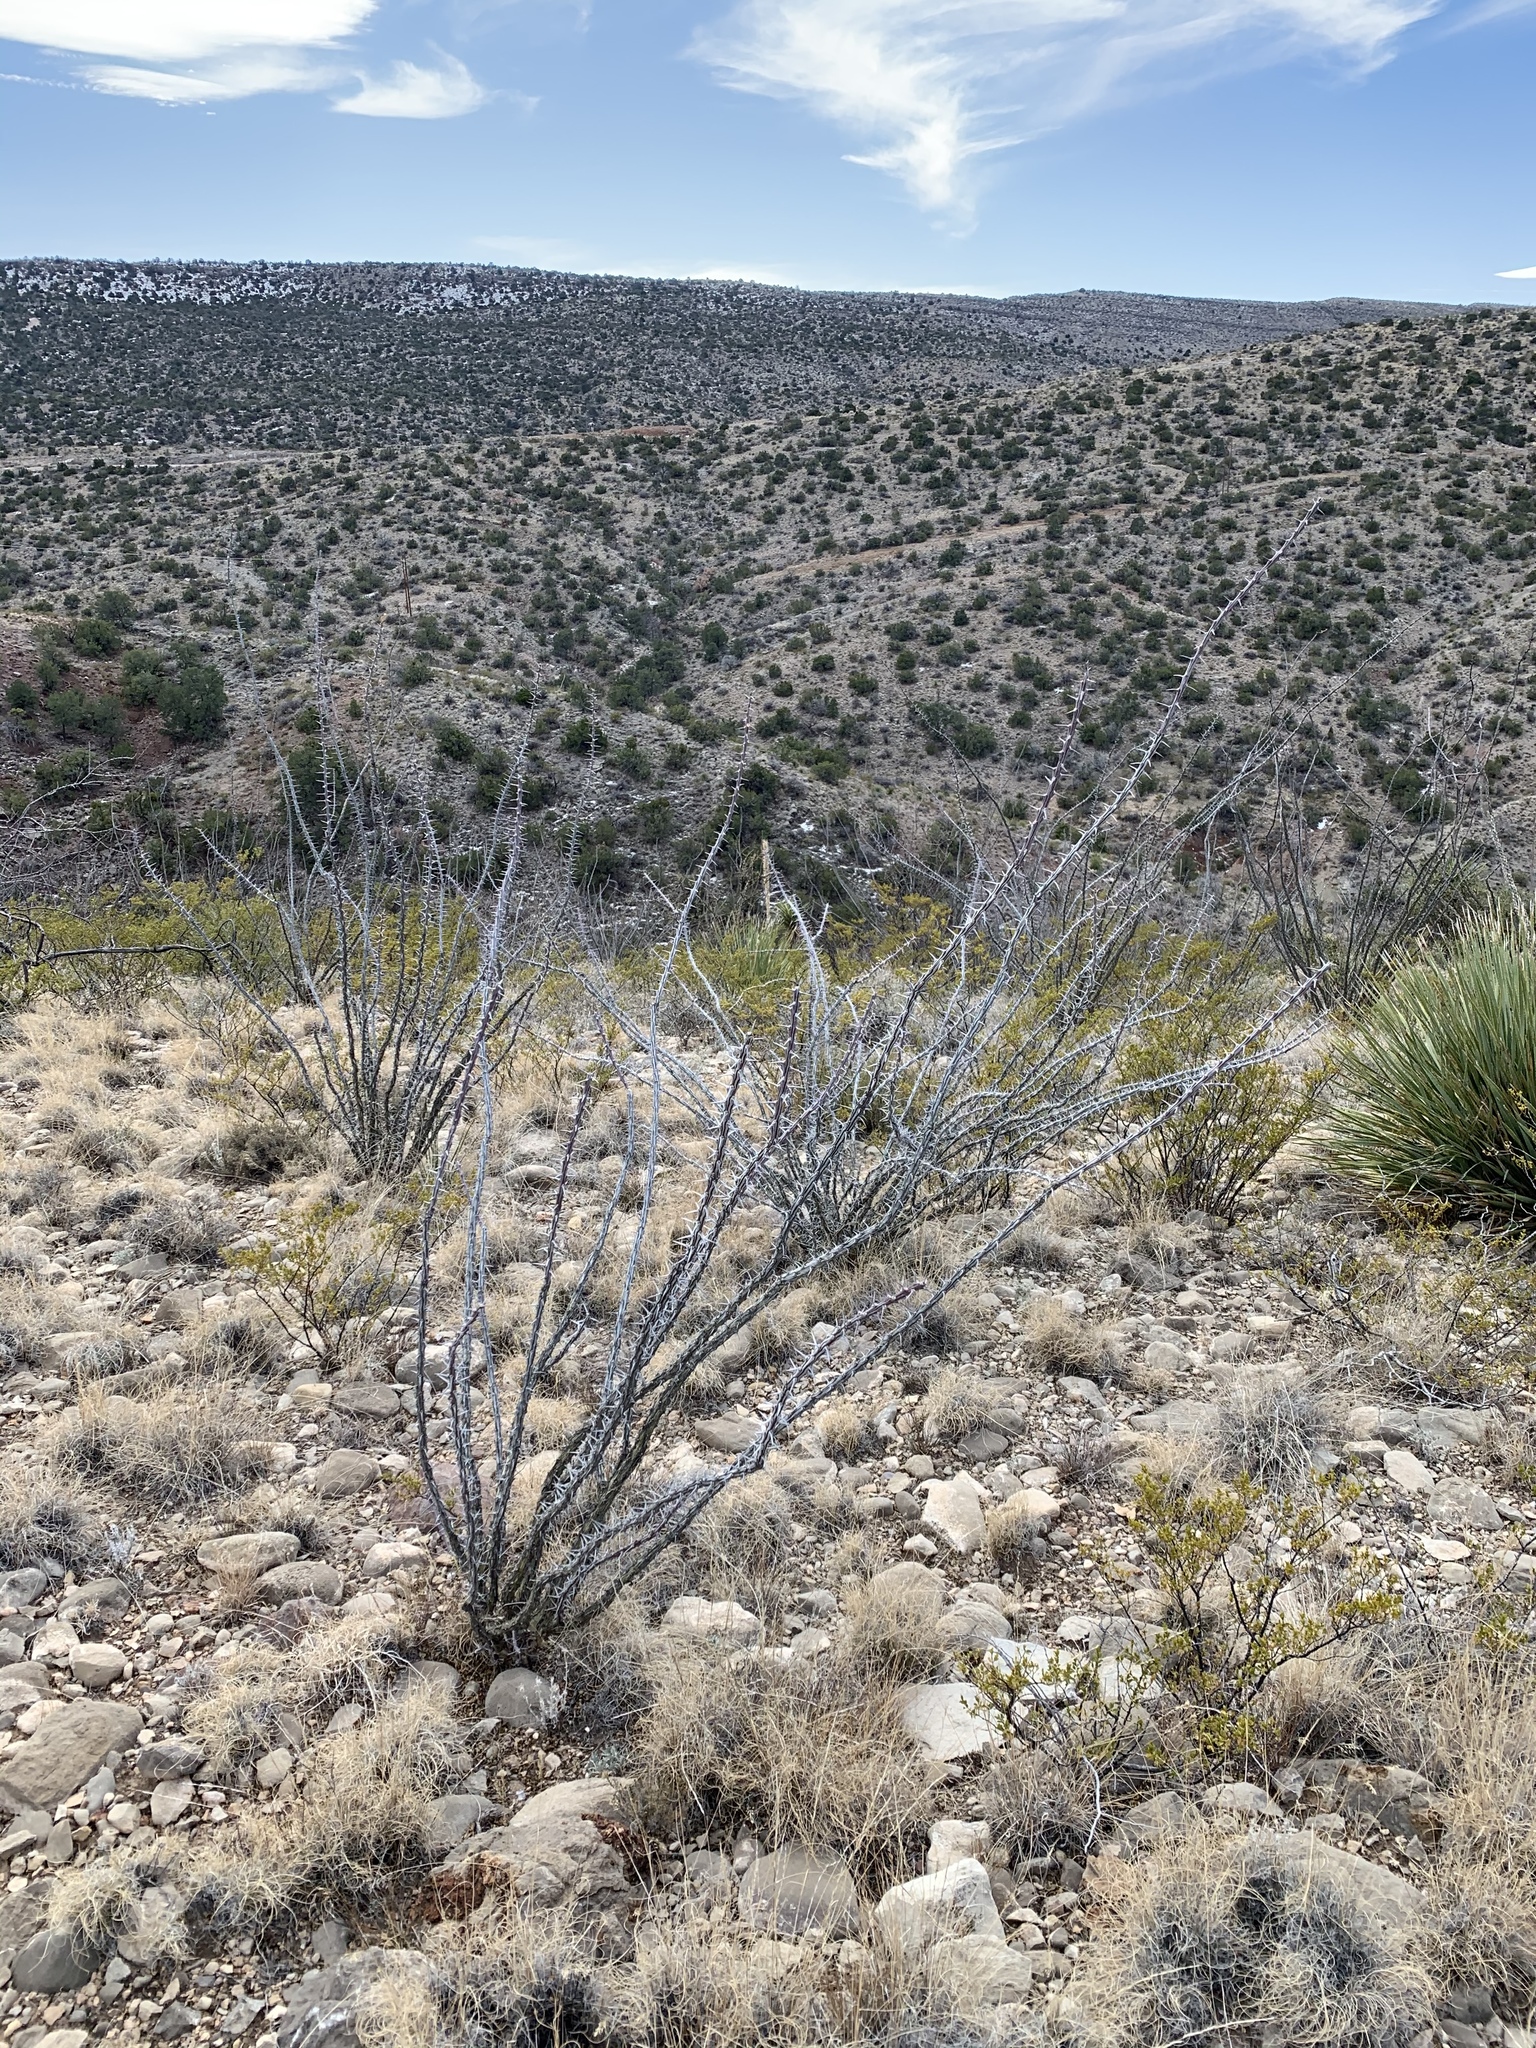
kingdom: Plantae
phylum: Tracheophyta
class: Magnoliopsida
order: Ericales
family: Fouquieriaceae
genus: Fouquieria
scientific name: Fouquieria splendens
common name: Vine-cactus
